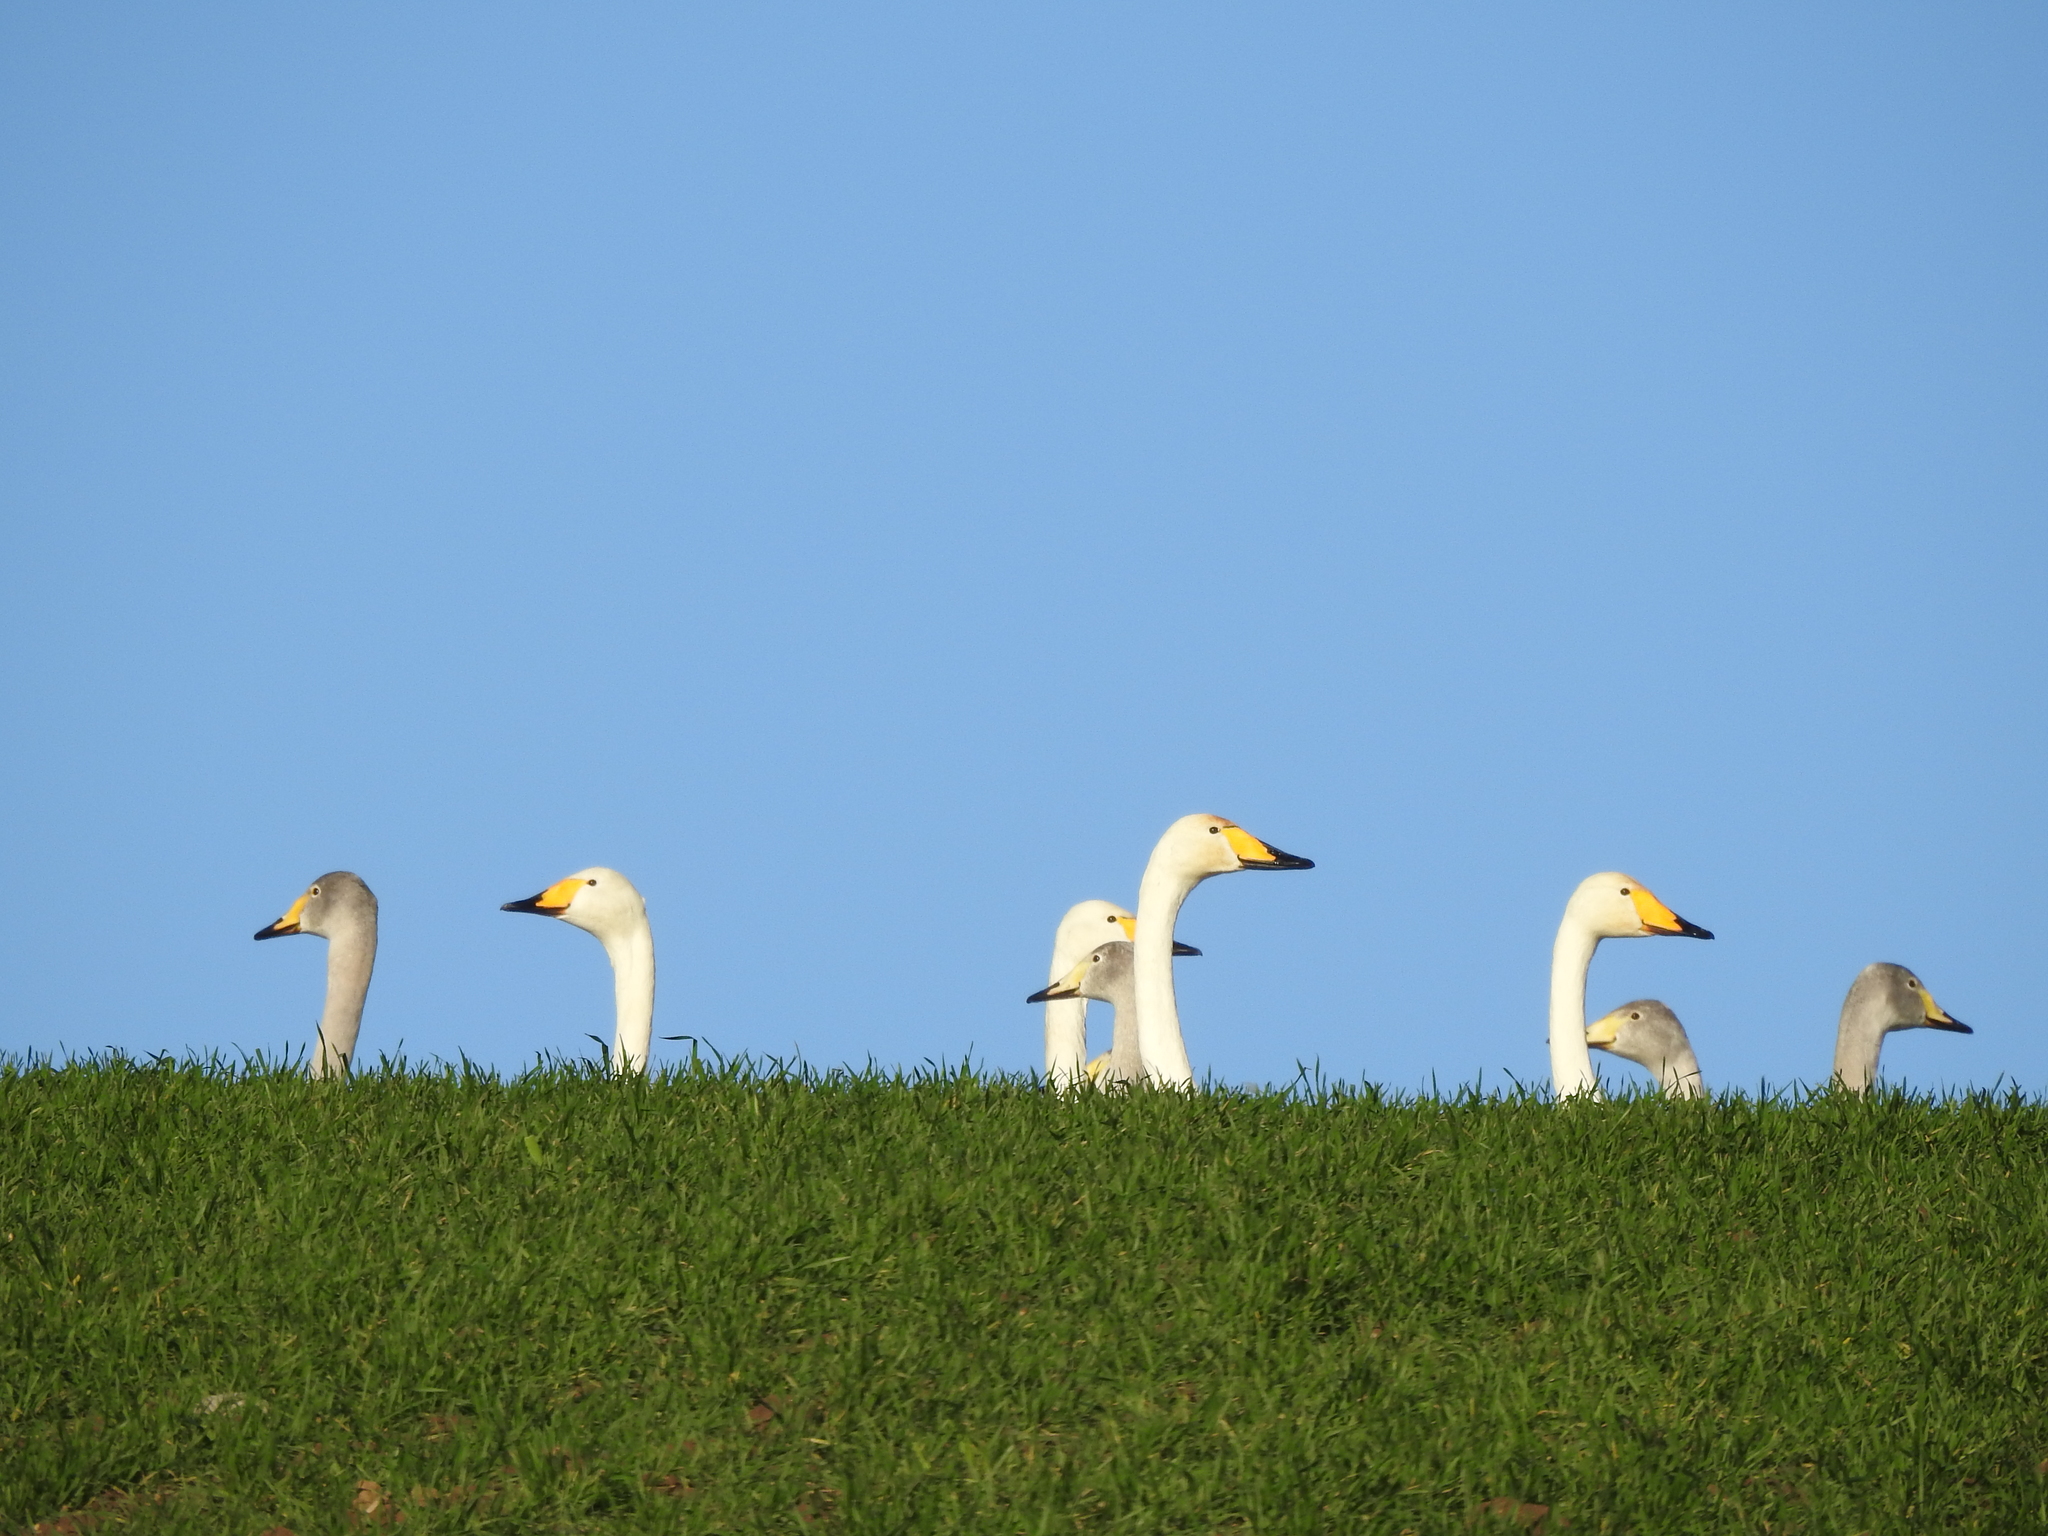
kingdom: Animalia
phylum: Chordata
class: Aves
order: Anseriformes
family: Anatidae
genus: Cygnus
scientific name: Cygnus cygnus
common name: Whooper swan
